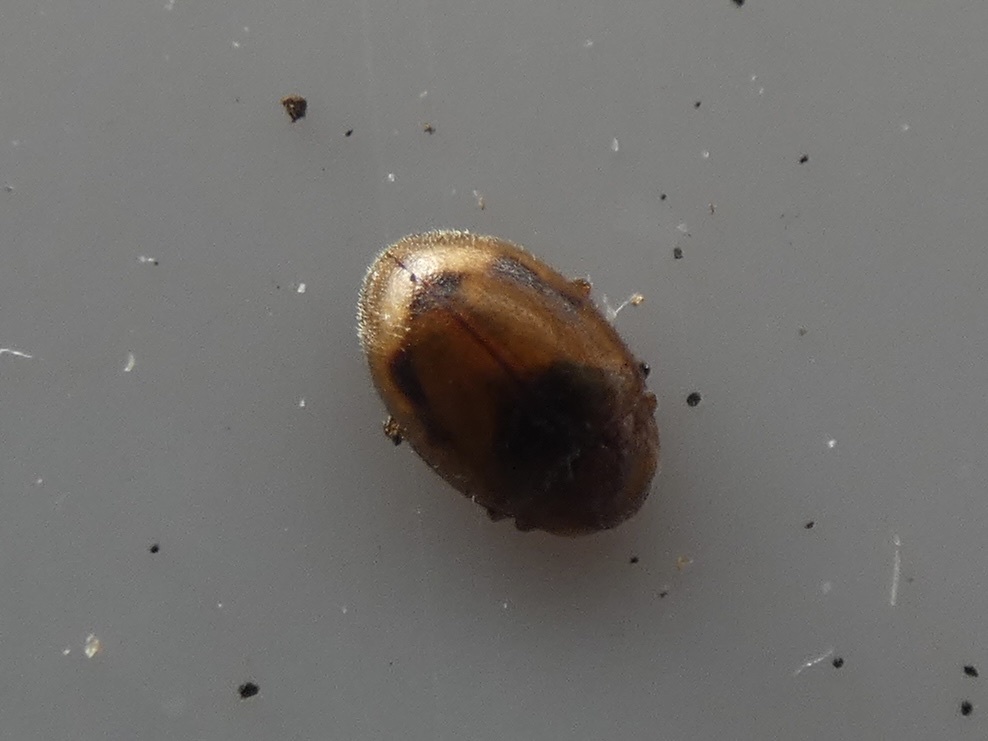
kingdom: Animalia
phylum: Arthropoda
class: Insecta
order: Coleoptera
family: Coccinellidae
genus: Rhyzobius
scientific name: Rhyzobius litura
